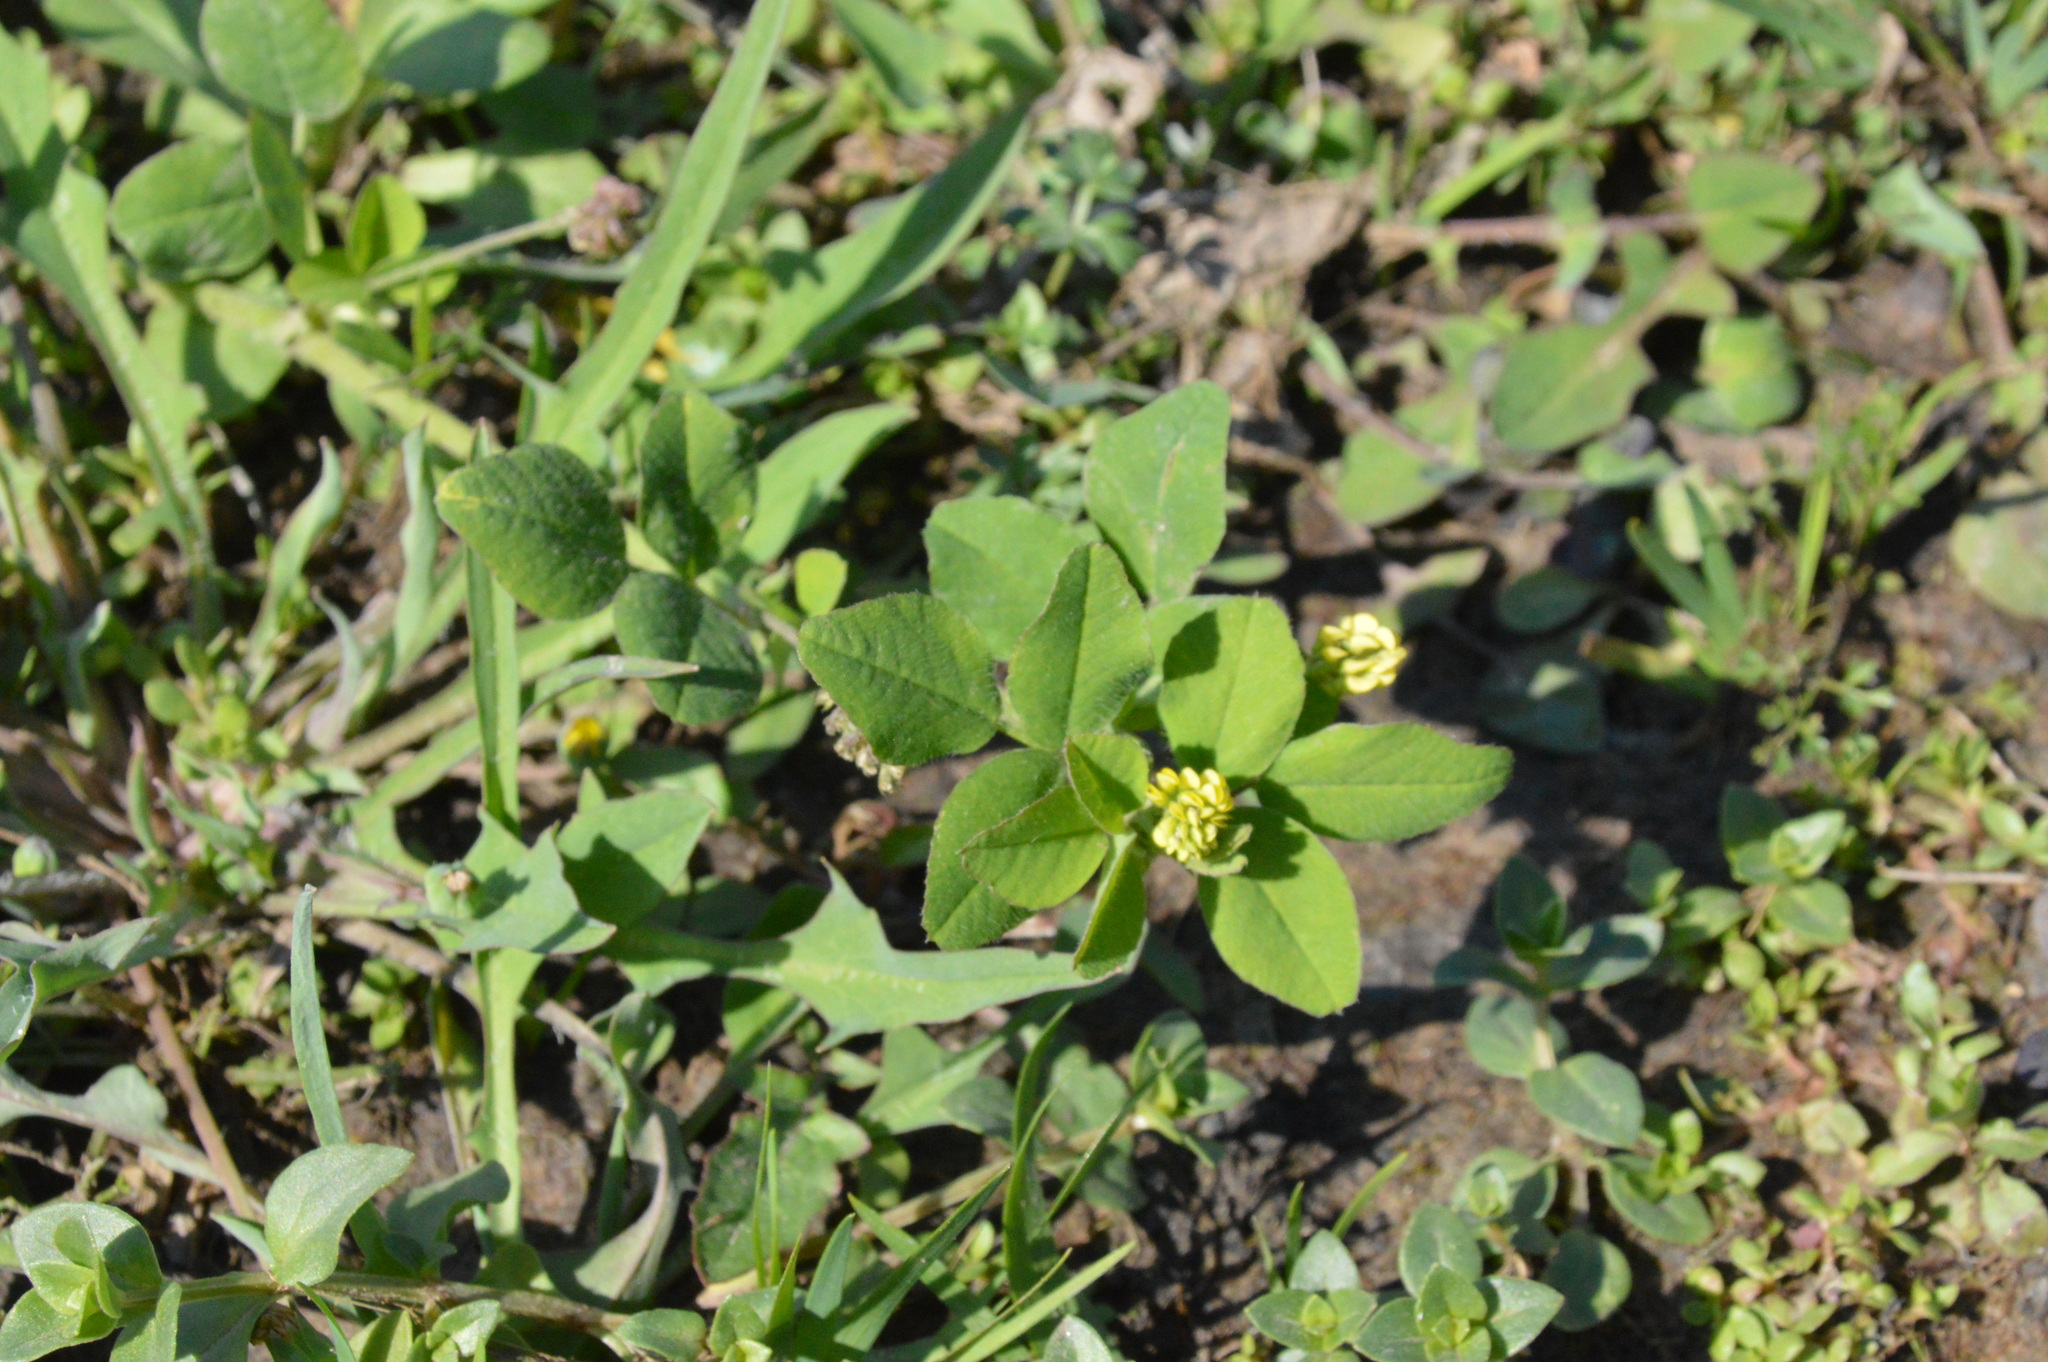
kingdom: Plantae
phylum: Tracheophyta
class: Magnoliopsida
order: Fabales
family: Fabaceae
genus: Medicago
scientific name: Medicago lupulina
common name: Black medick
